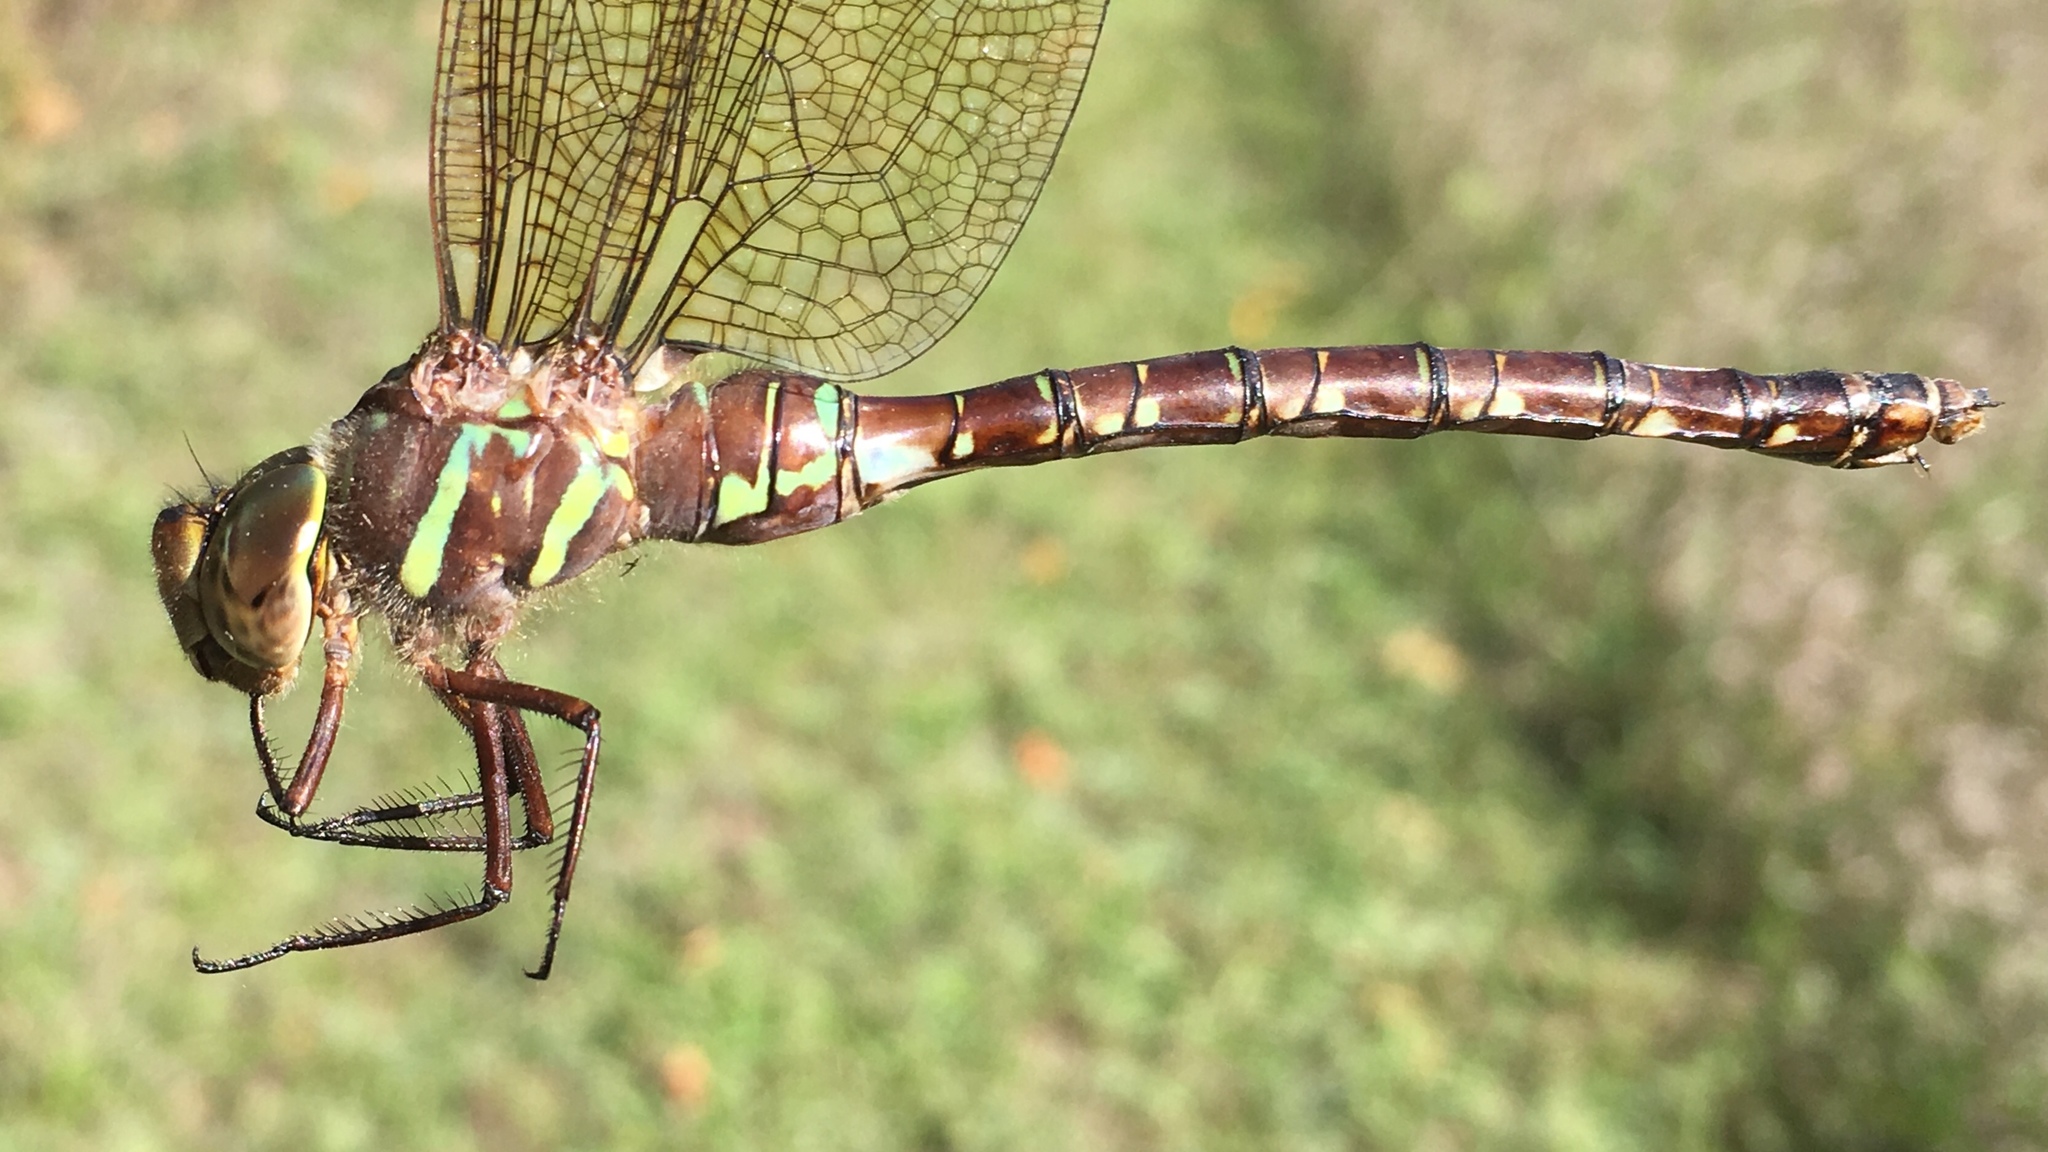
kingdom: Animalia
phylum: Arthropoda
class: Insecta
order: Odonata
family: Aeshnidae
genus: Aeshna
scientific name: Aeshna umbrosa
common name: Shadow darner
